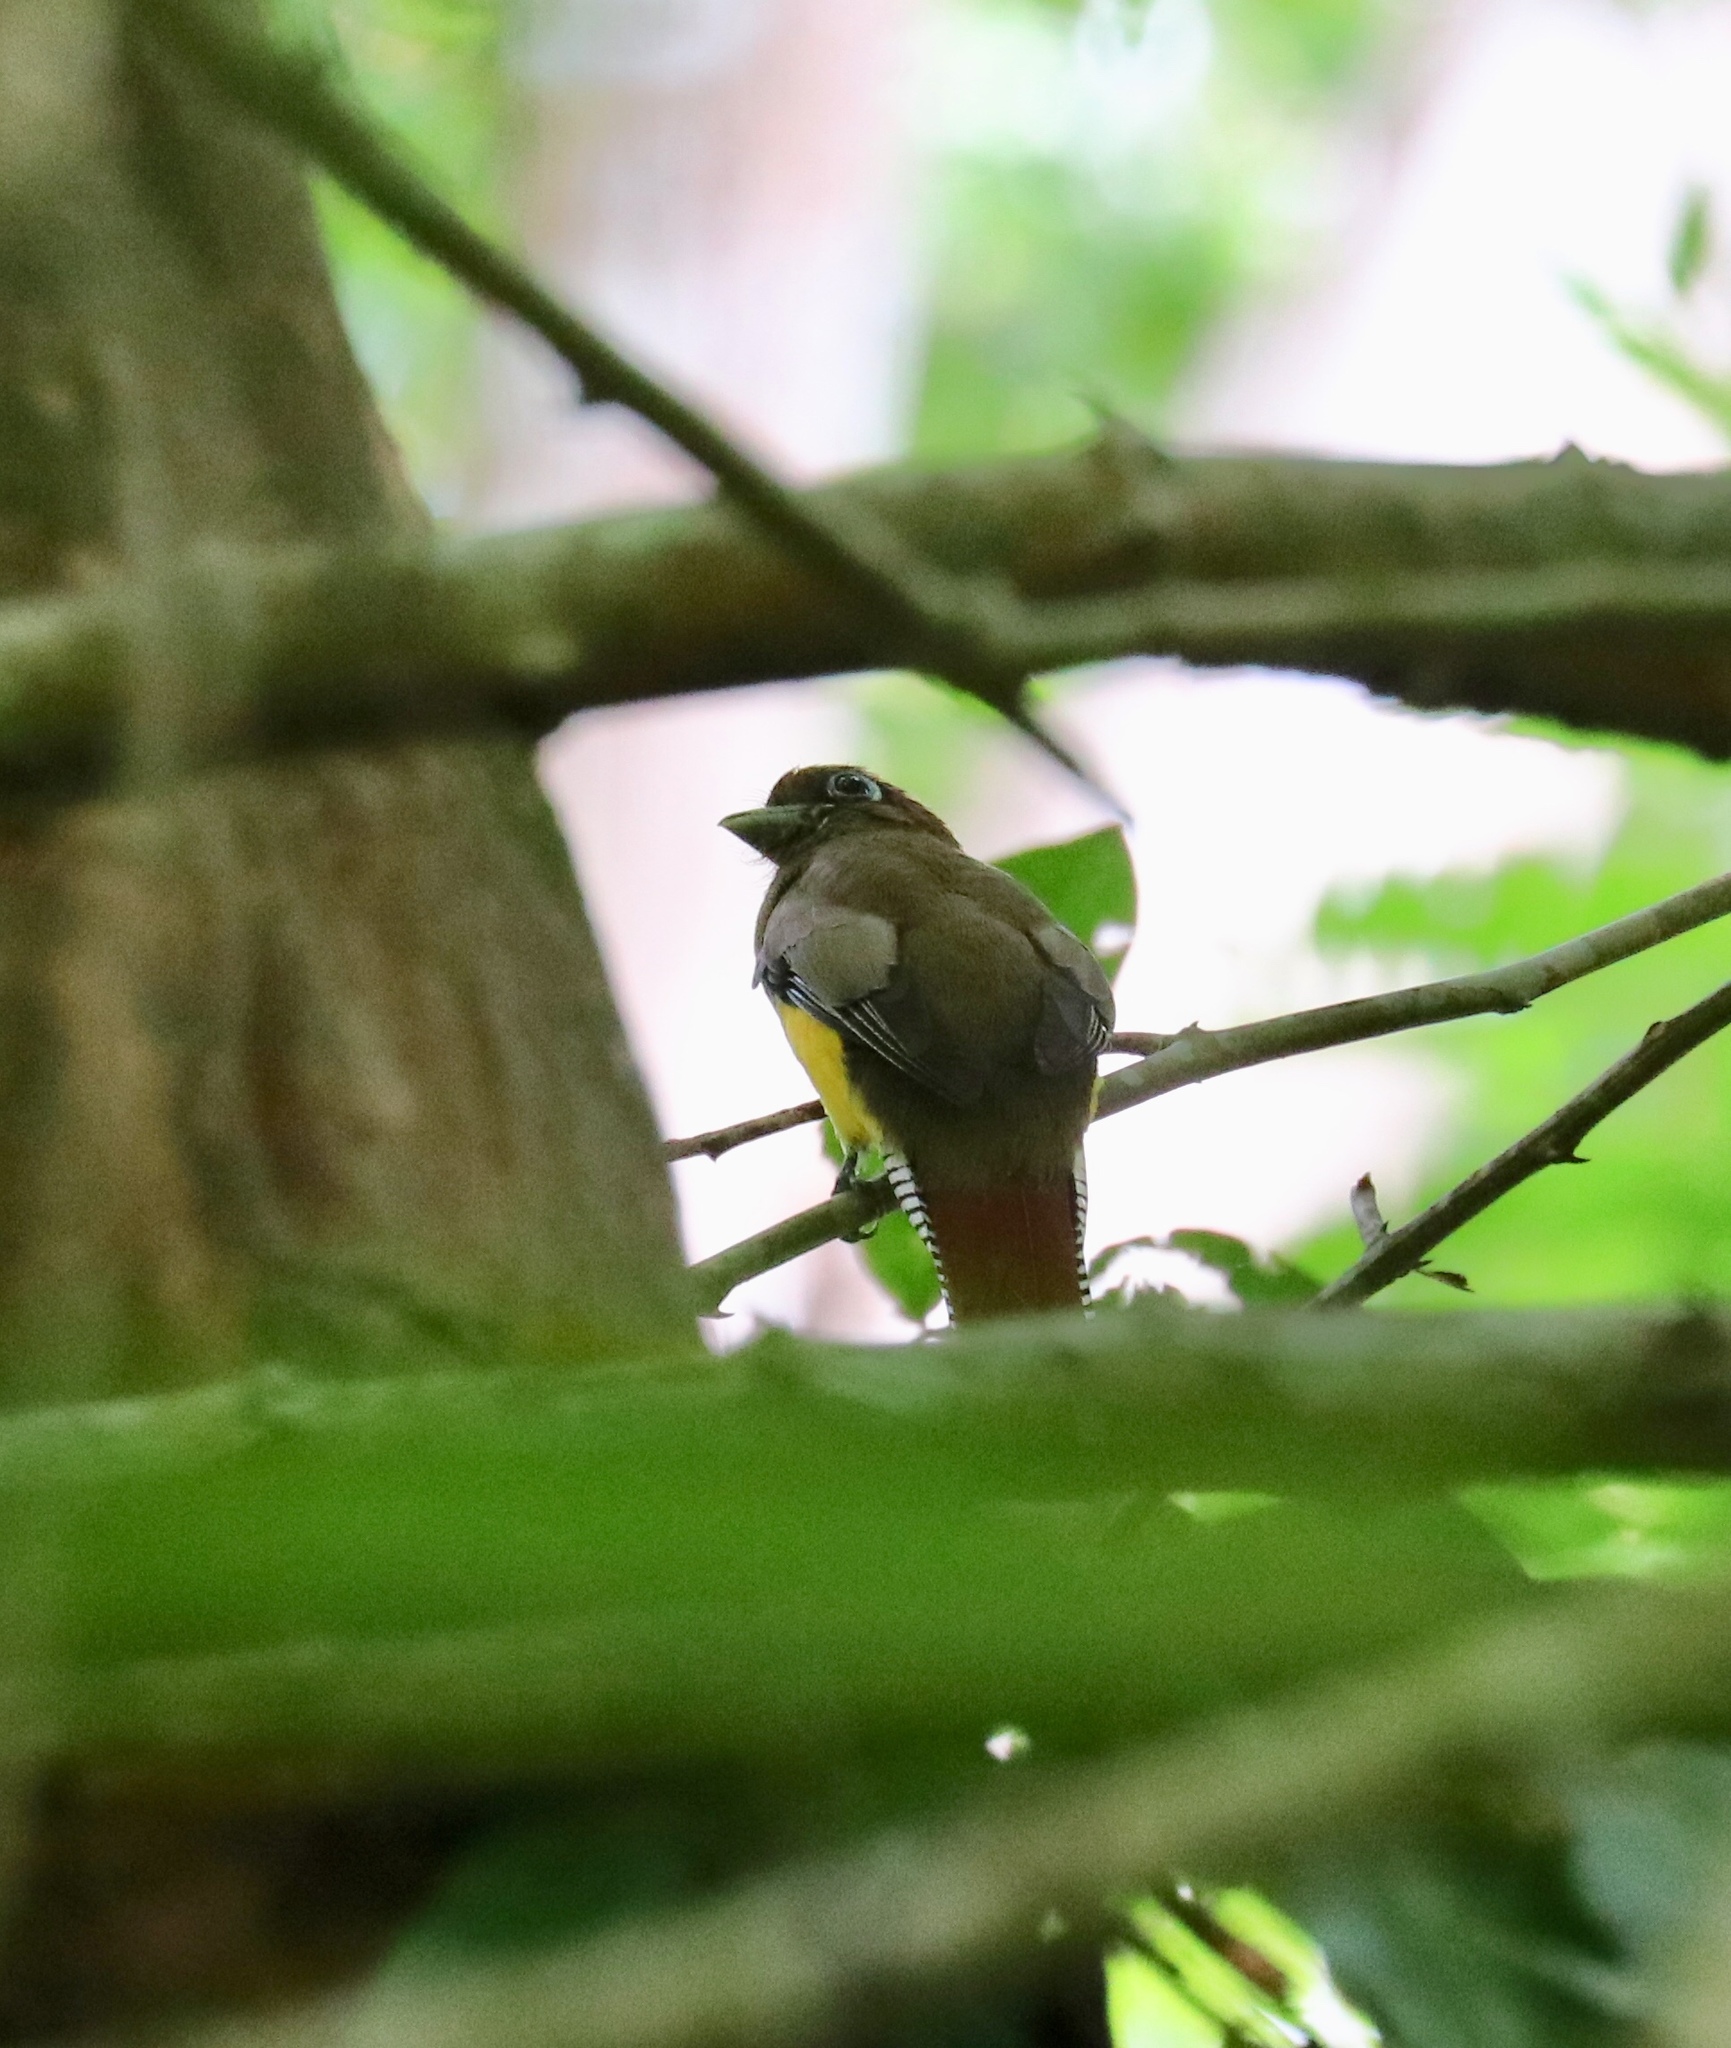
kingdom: Animalia
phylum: Chordata
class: Aves
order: Trogoniformes
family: Trogonidae
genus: Trogon
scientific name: Trogon rufus
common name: Black-throated trogon
